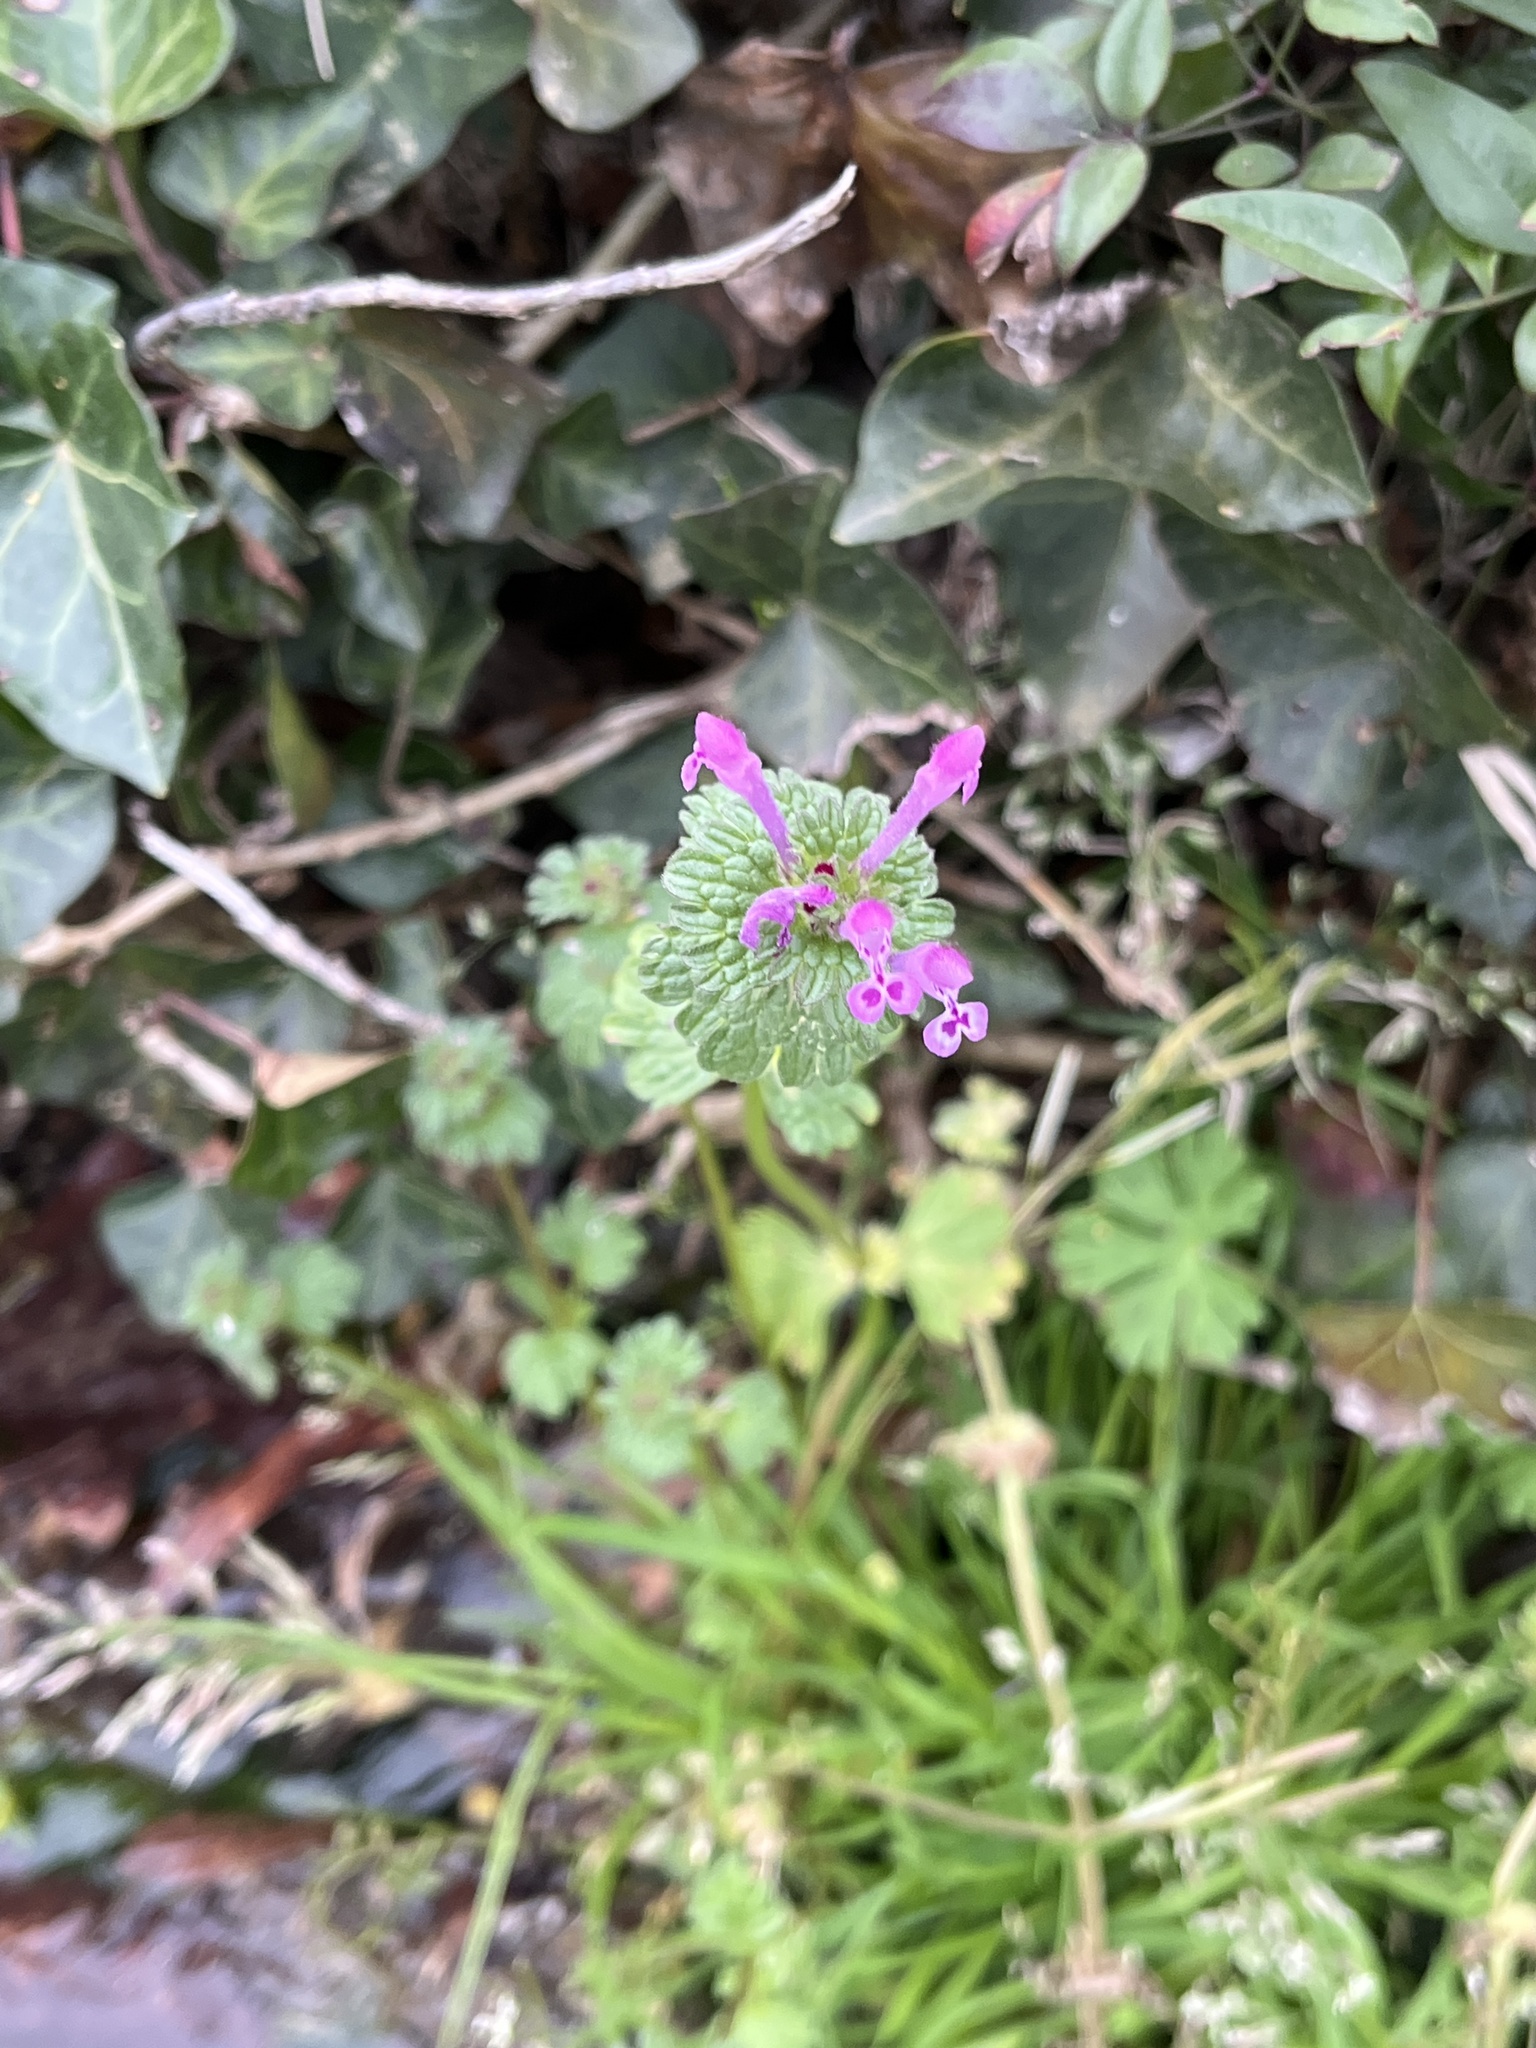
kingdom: Plantae
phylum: Tracheophyta
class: Magnoliopsida
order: Lamiales
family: Lamiaceae
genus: Lamium
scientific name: Lamium amplexicaule
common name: Henbit dead-nettle
